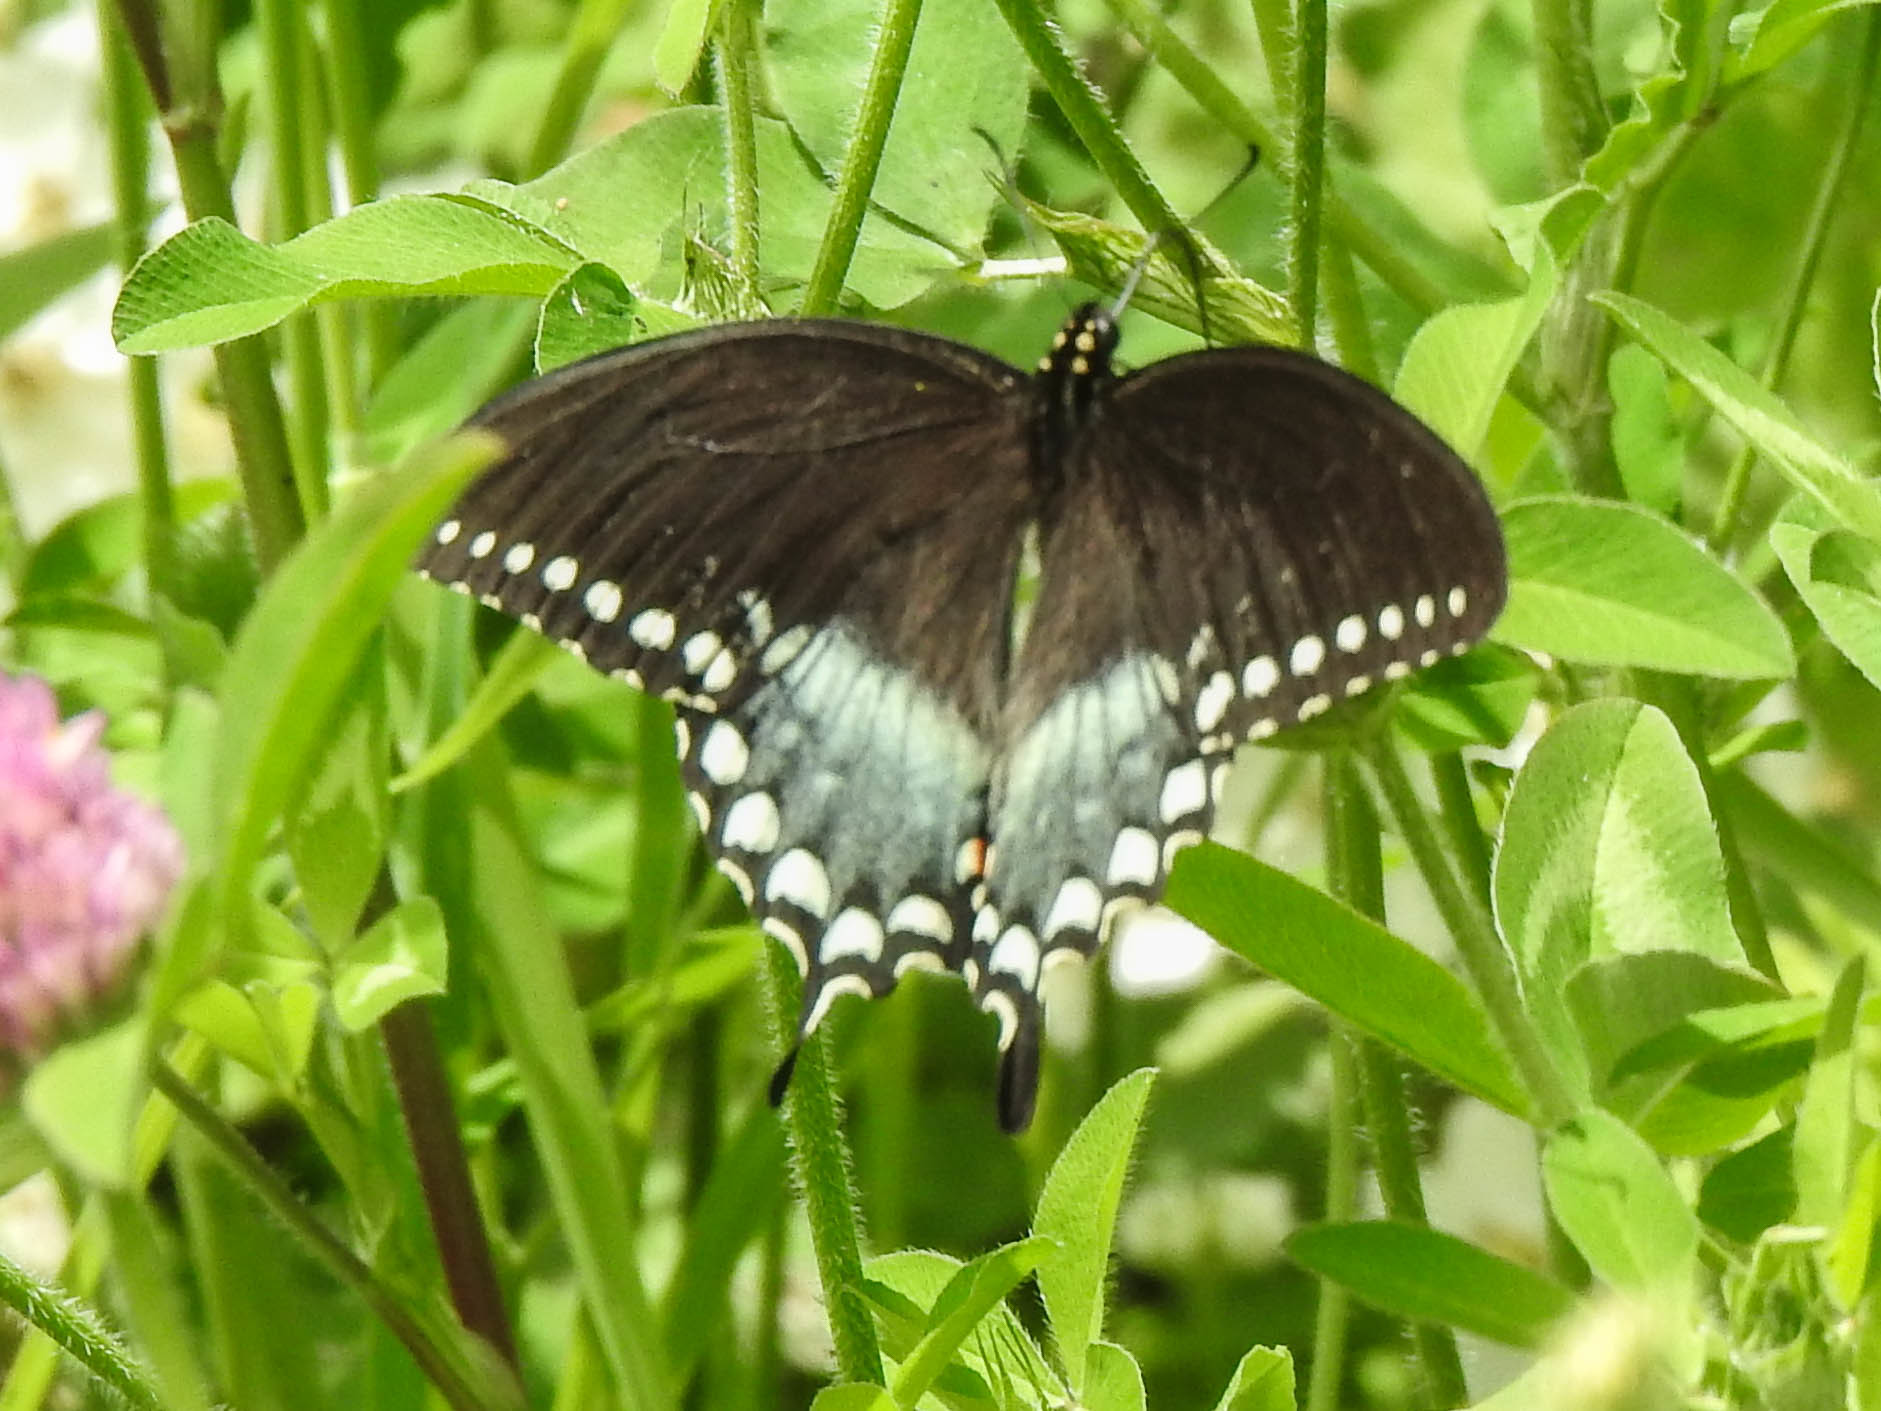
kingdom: Animalia
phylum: Arthropoda
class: Insecta
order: Lepidoptera
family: Papilionidae
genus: Papilio
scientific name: Papilio troilus
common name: Spicebush swallowtail
